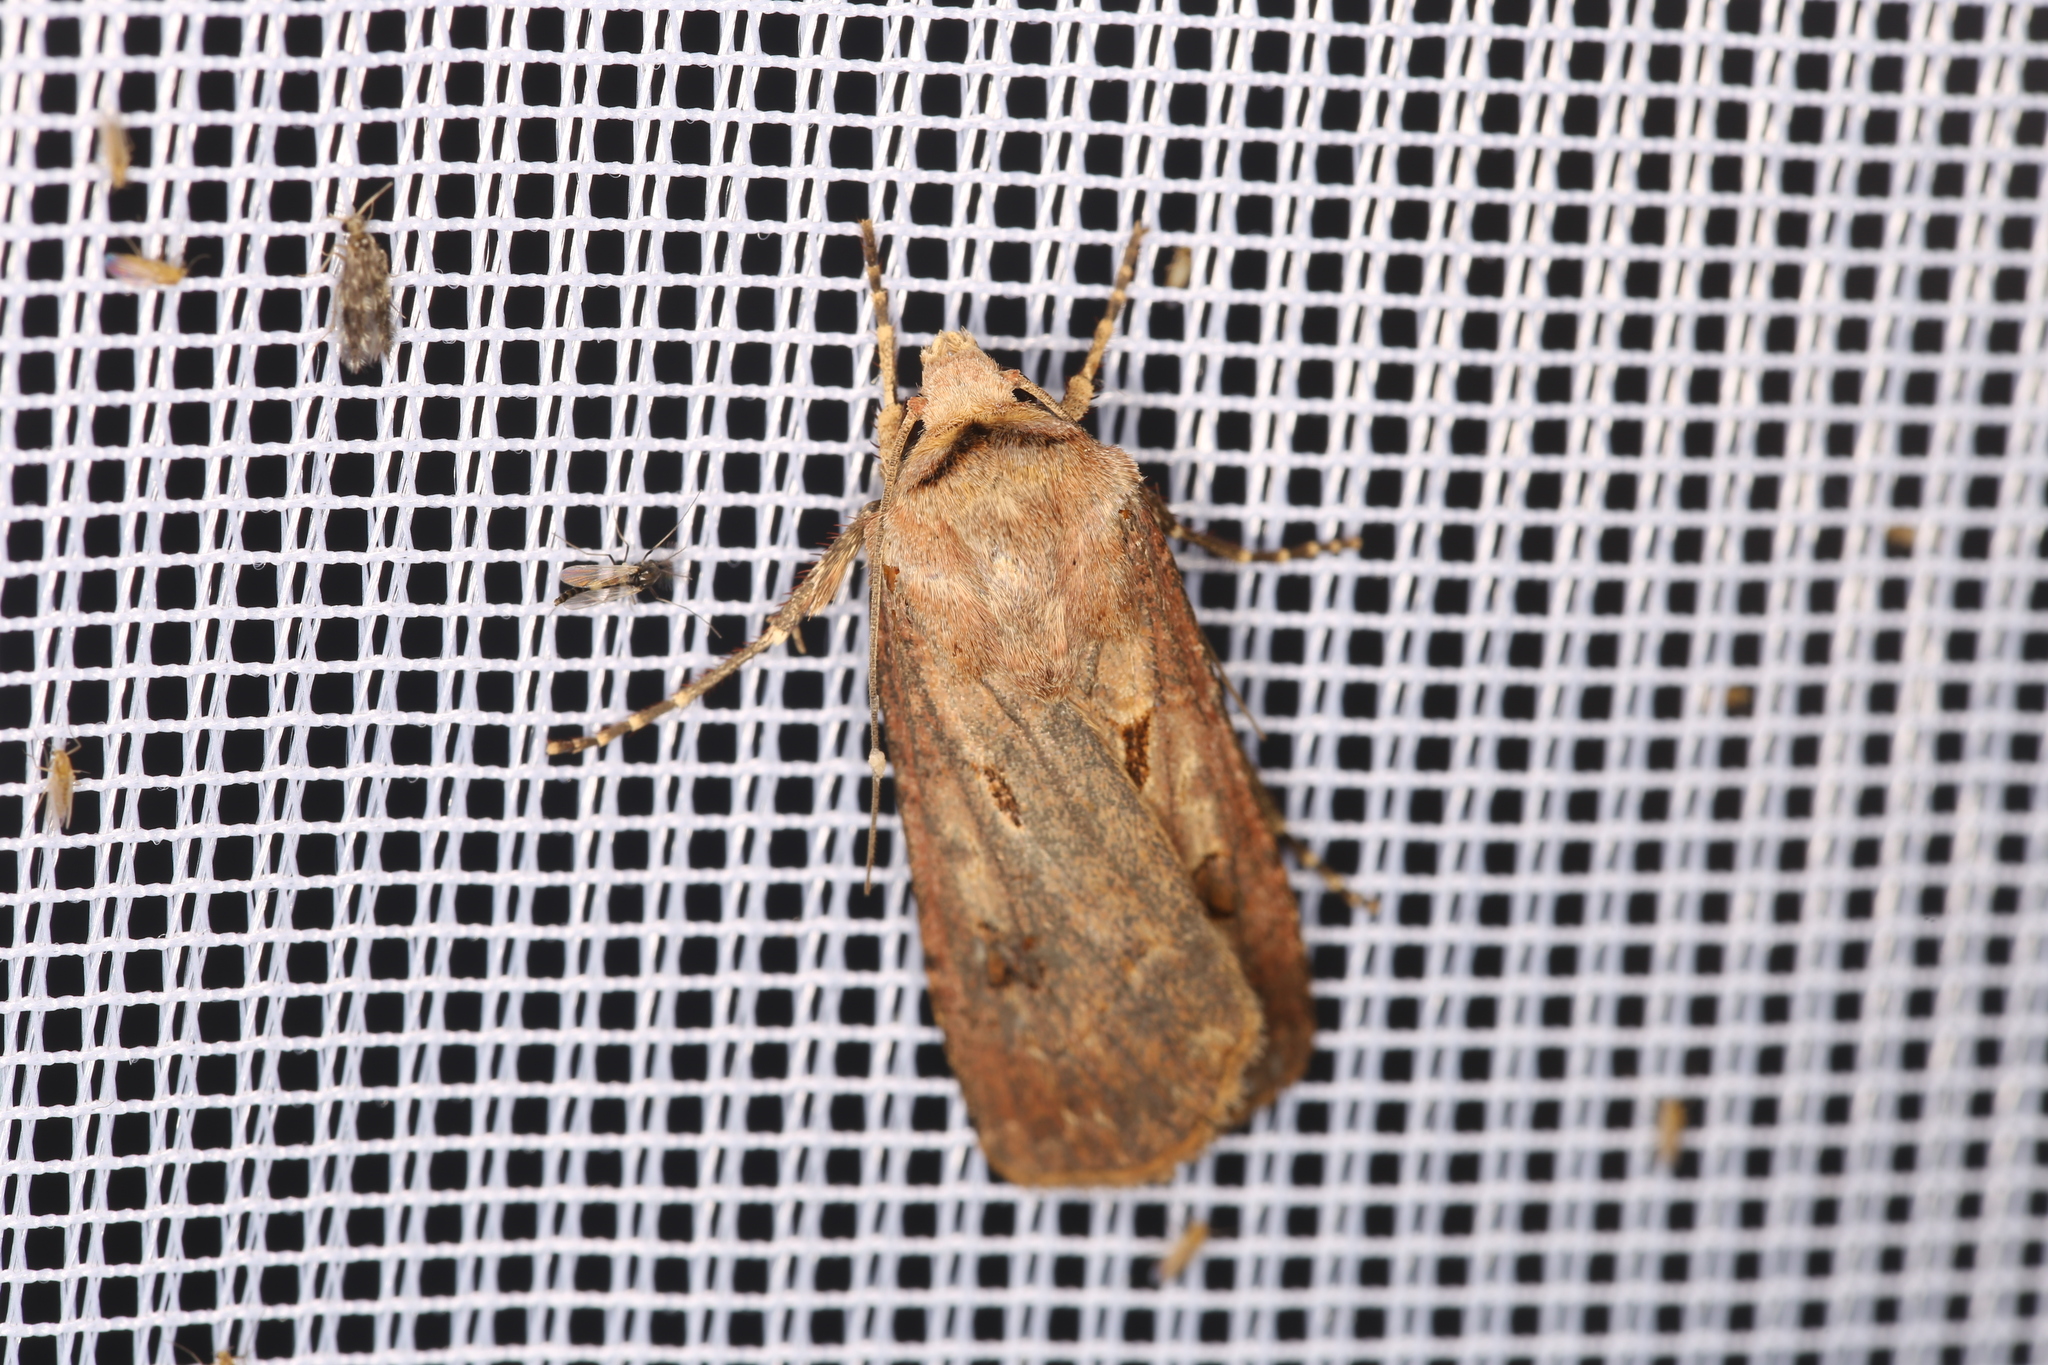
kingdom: Animalia
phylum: Arthropoda
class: Insecta
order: Lepidoptera
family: Noctuidae
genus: Agrotis
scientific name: Agrotis exclamationis
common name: Heart and dart
